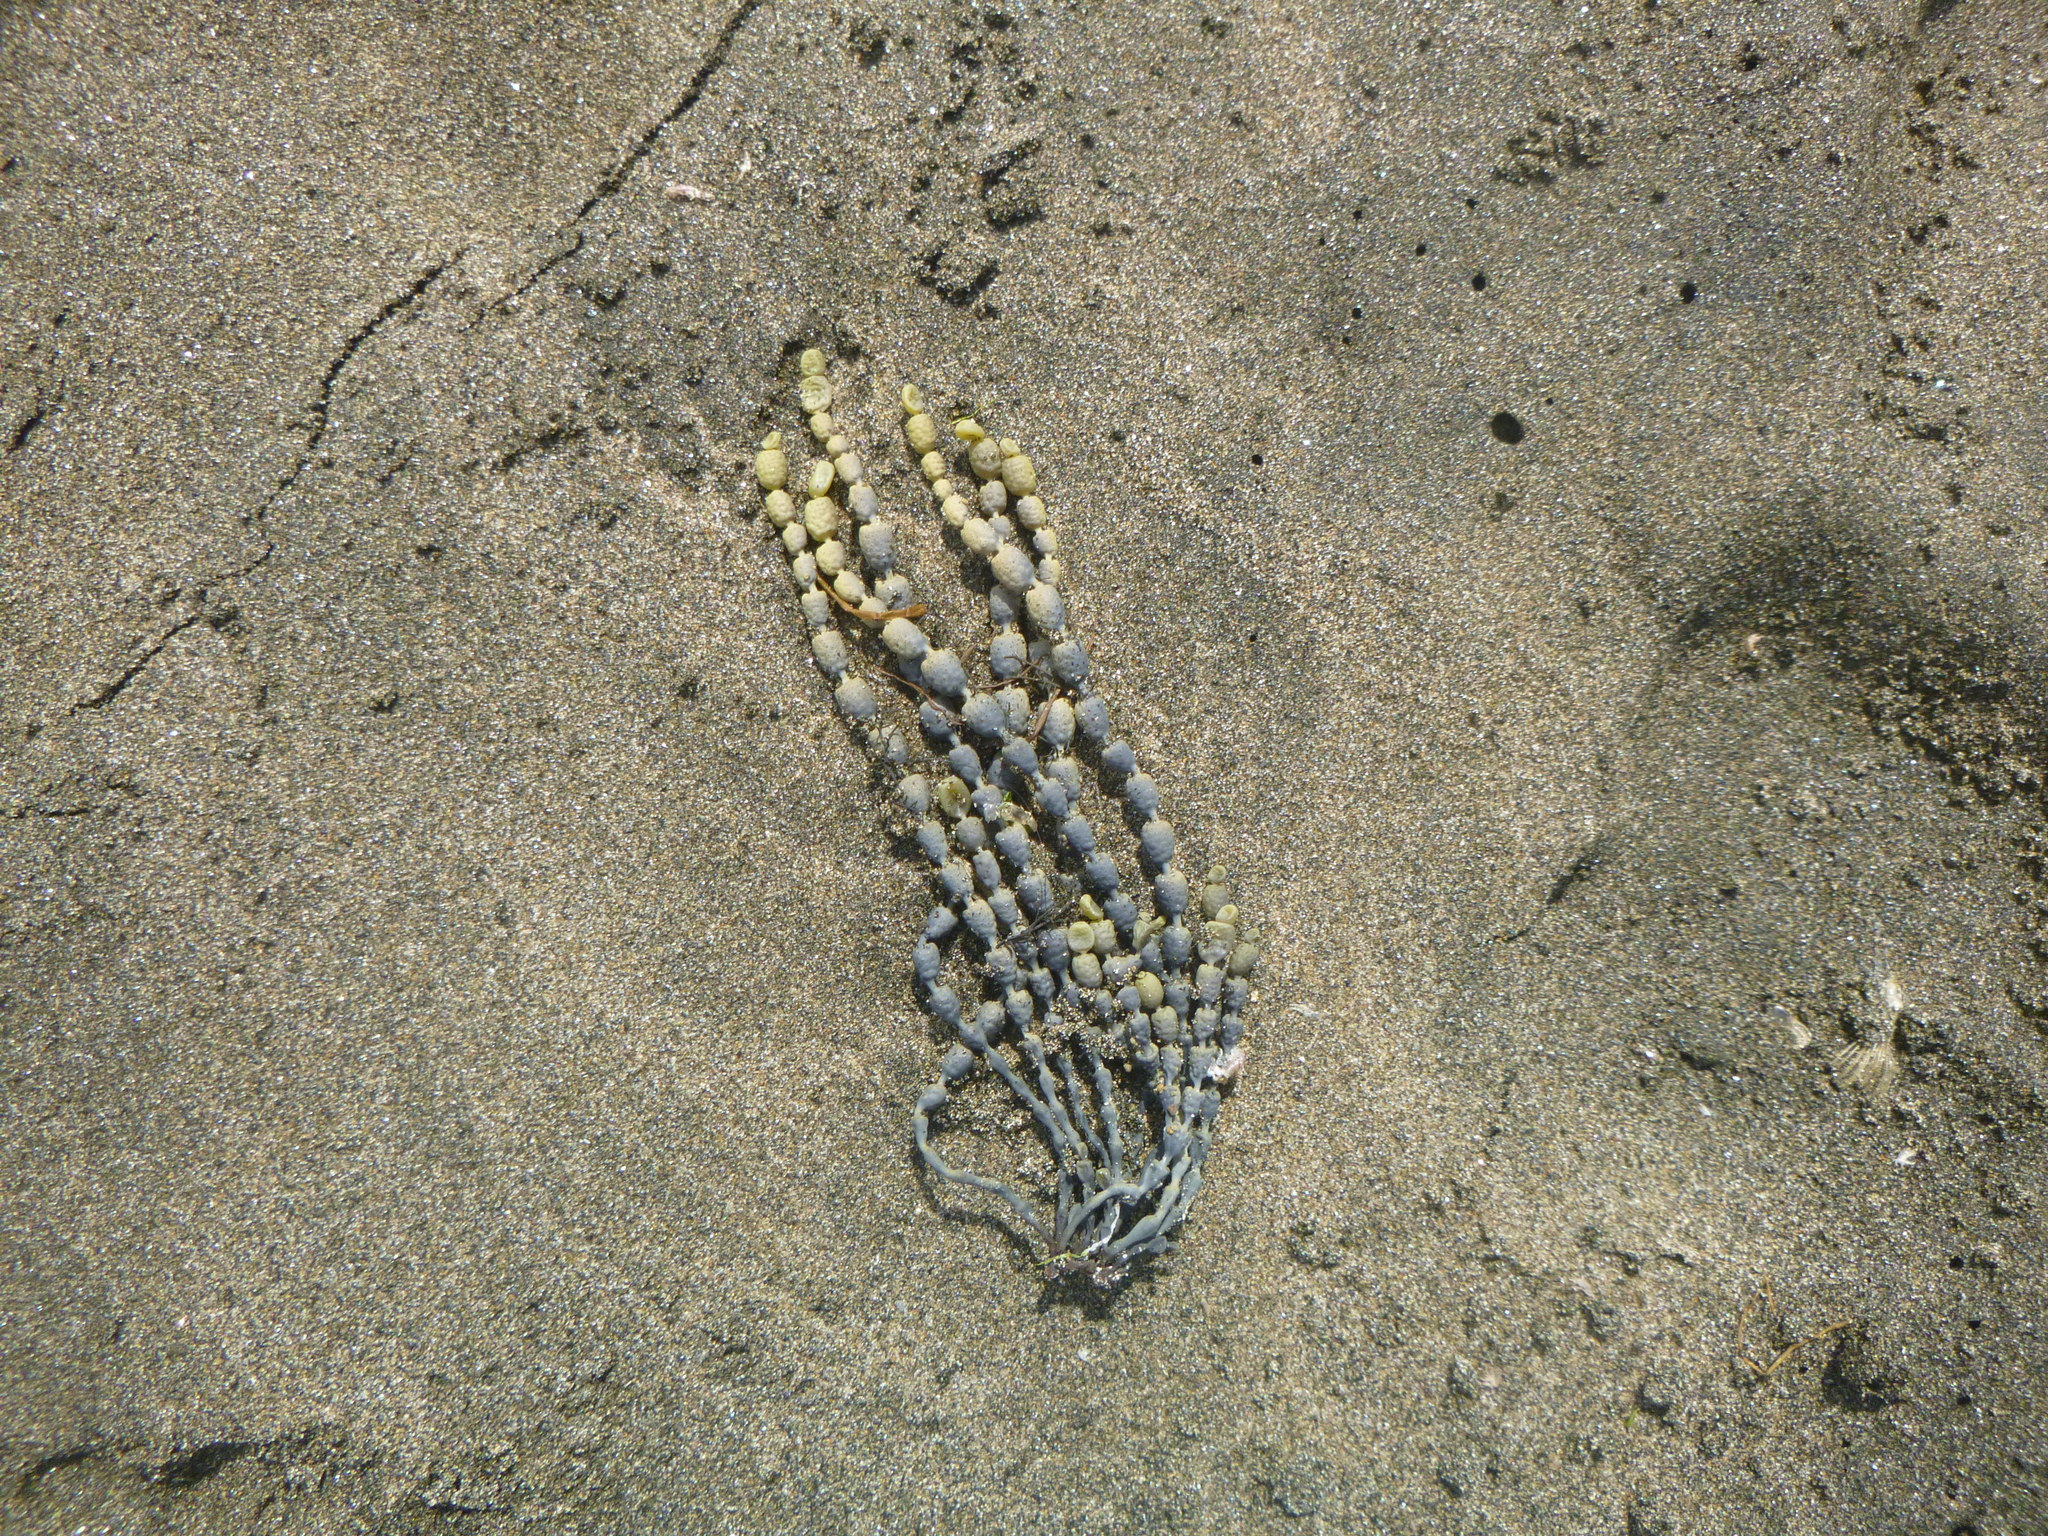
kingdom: Chromista
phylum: Ochrophyta
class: Phaeophyceae
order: Fucales
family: Hormosiraceae
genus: Hormosira
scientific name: Hormosira banksii
